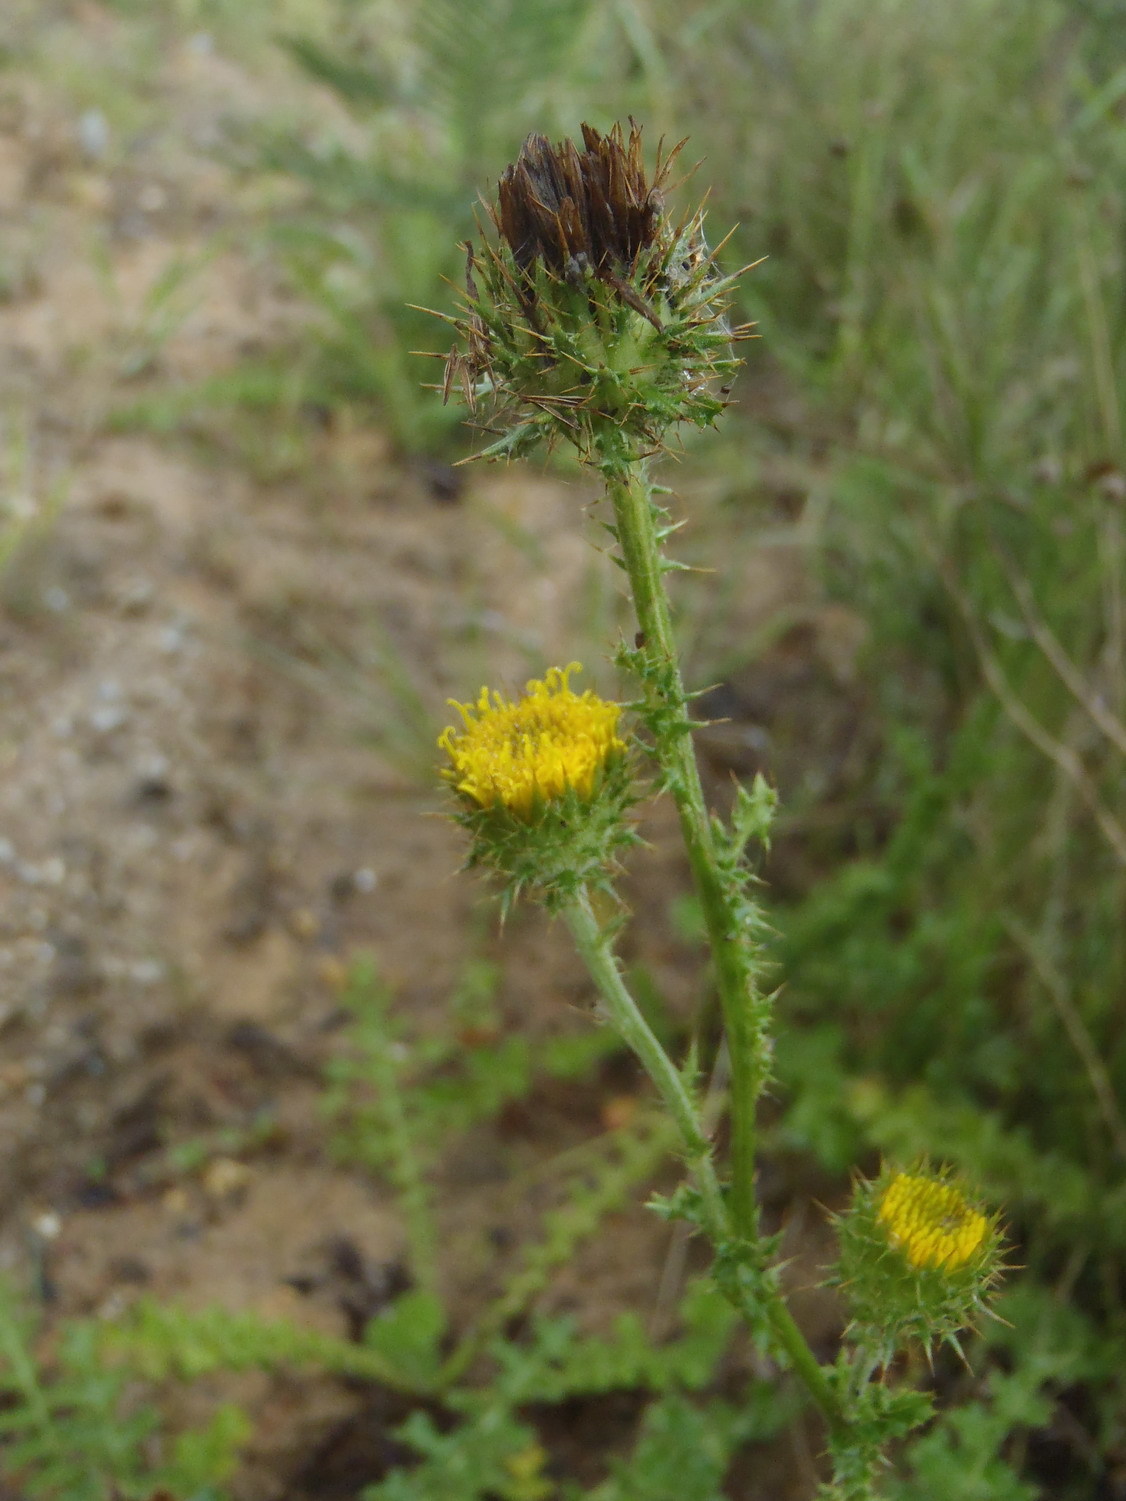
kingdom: Plantae
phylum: Tracheophyta
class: Magnoliopsida
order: Asterales
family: Asteraceae
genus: Berkheya
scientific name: Berkheya carduoides
